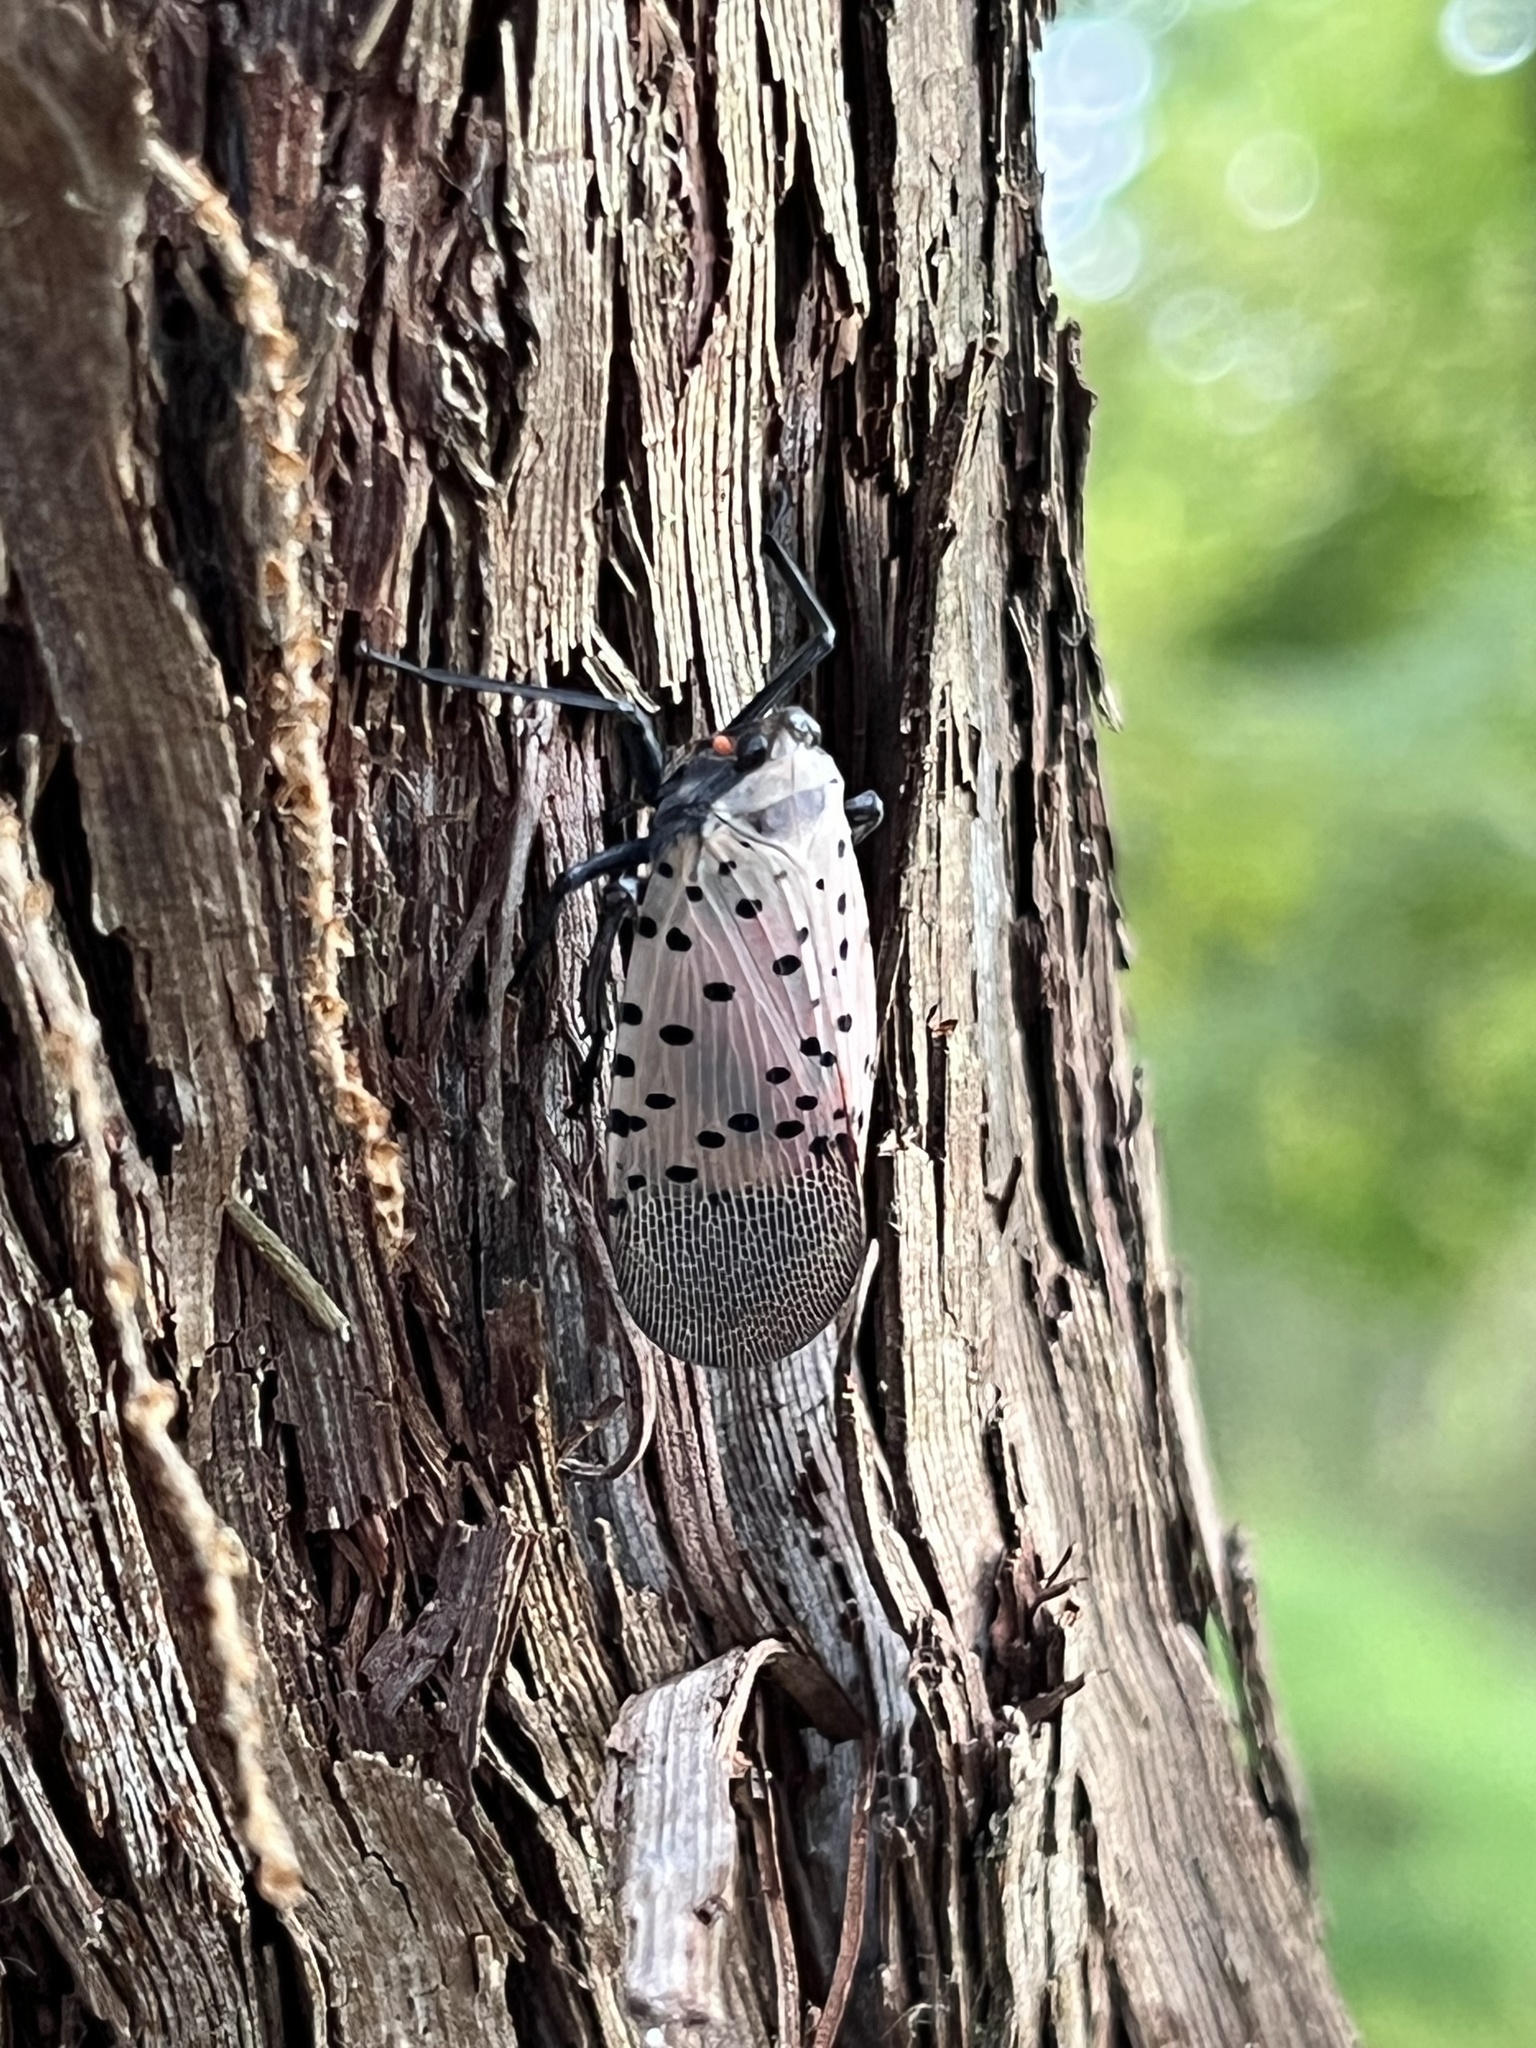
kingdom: Animalia
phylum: Arthropoda
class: Insecta
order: Hemiptera
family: Fulgoridae
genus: Lycorma
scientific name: Lycorma delicatula
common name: Spotted lanternfly
